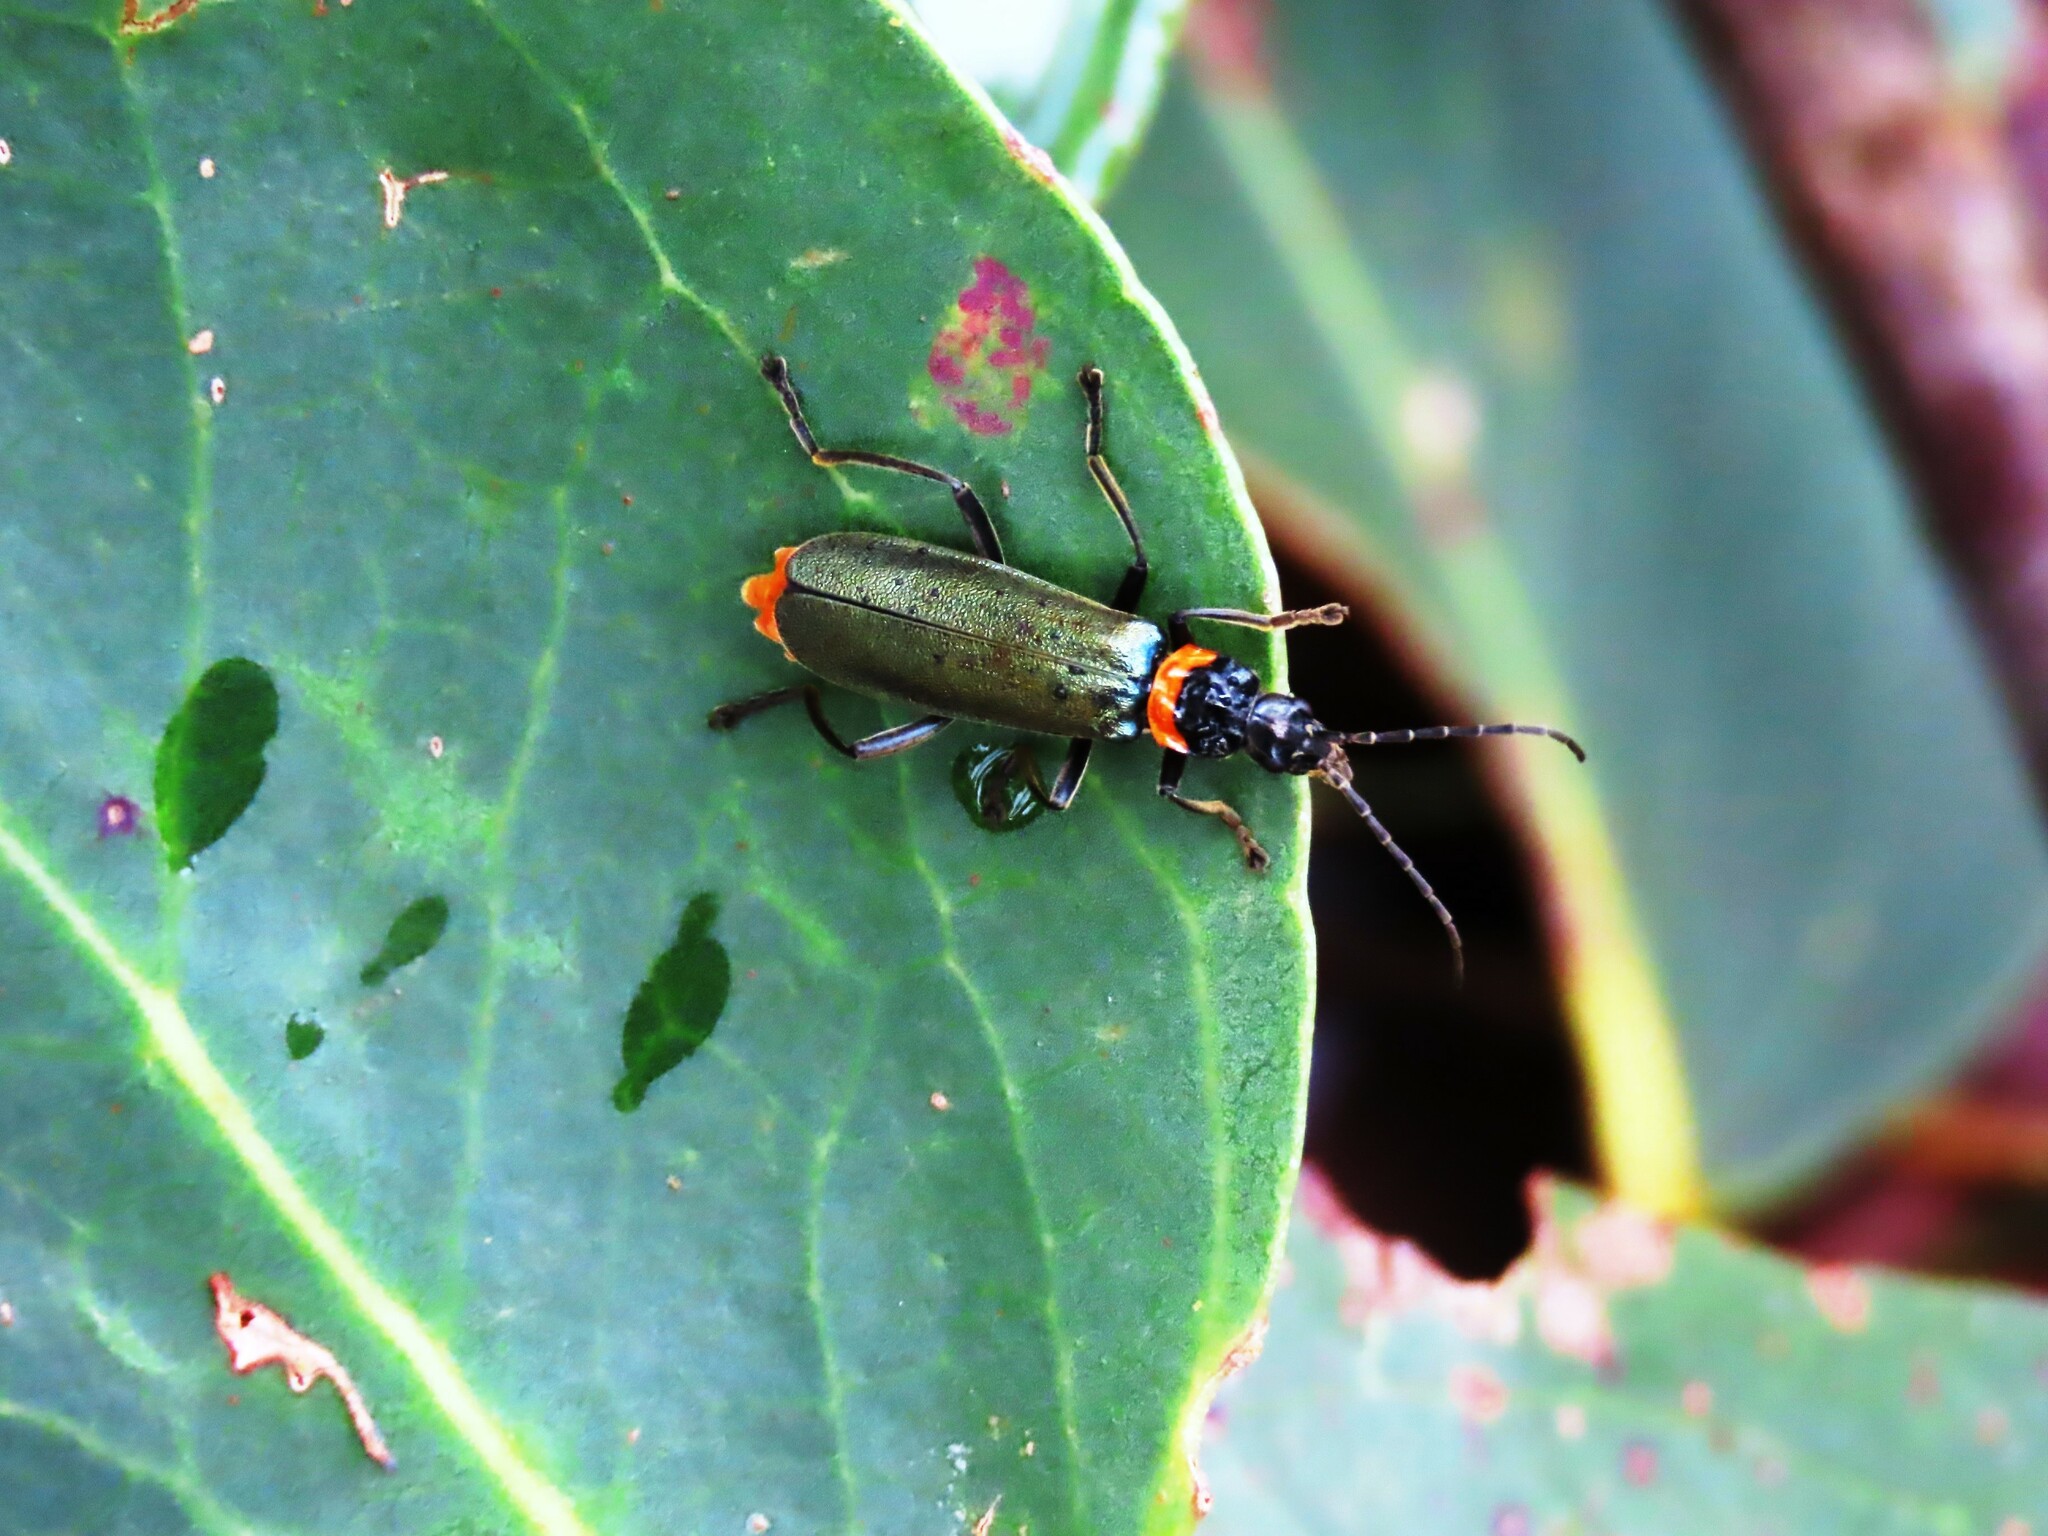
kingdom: Animalia
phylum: Arthropoda
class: Insecta
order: Coleoptera
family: Cantharidae
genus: Chauliognathus
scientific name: Chauliognathus
